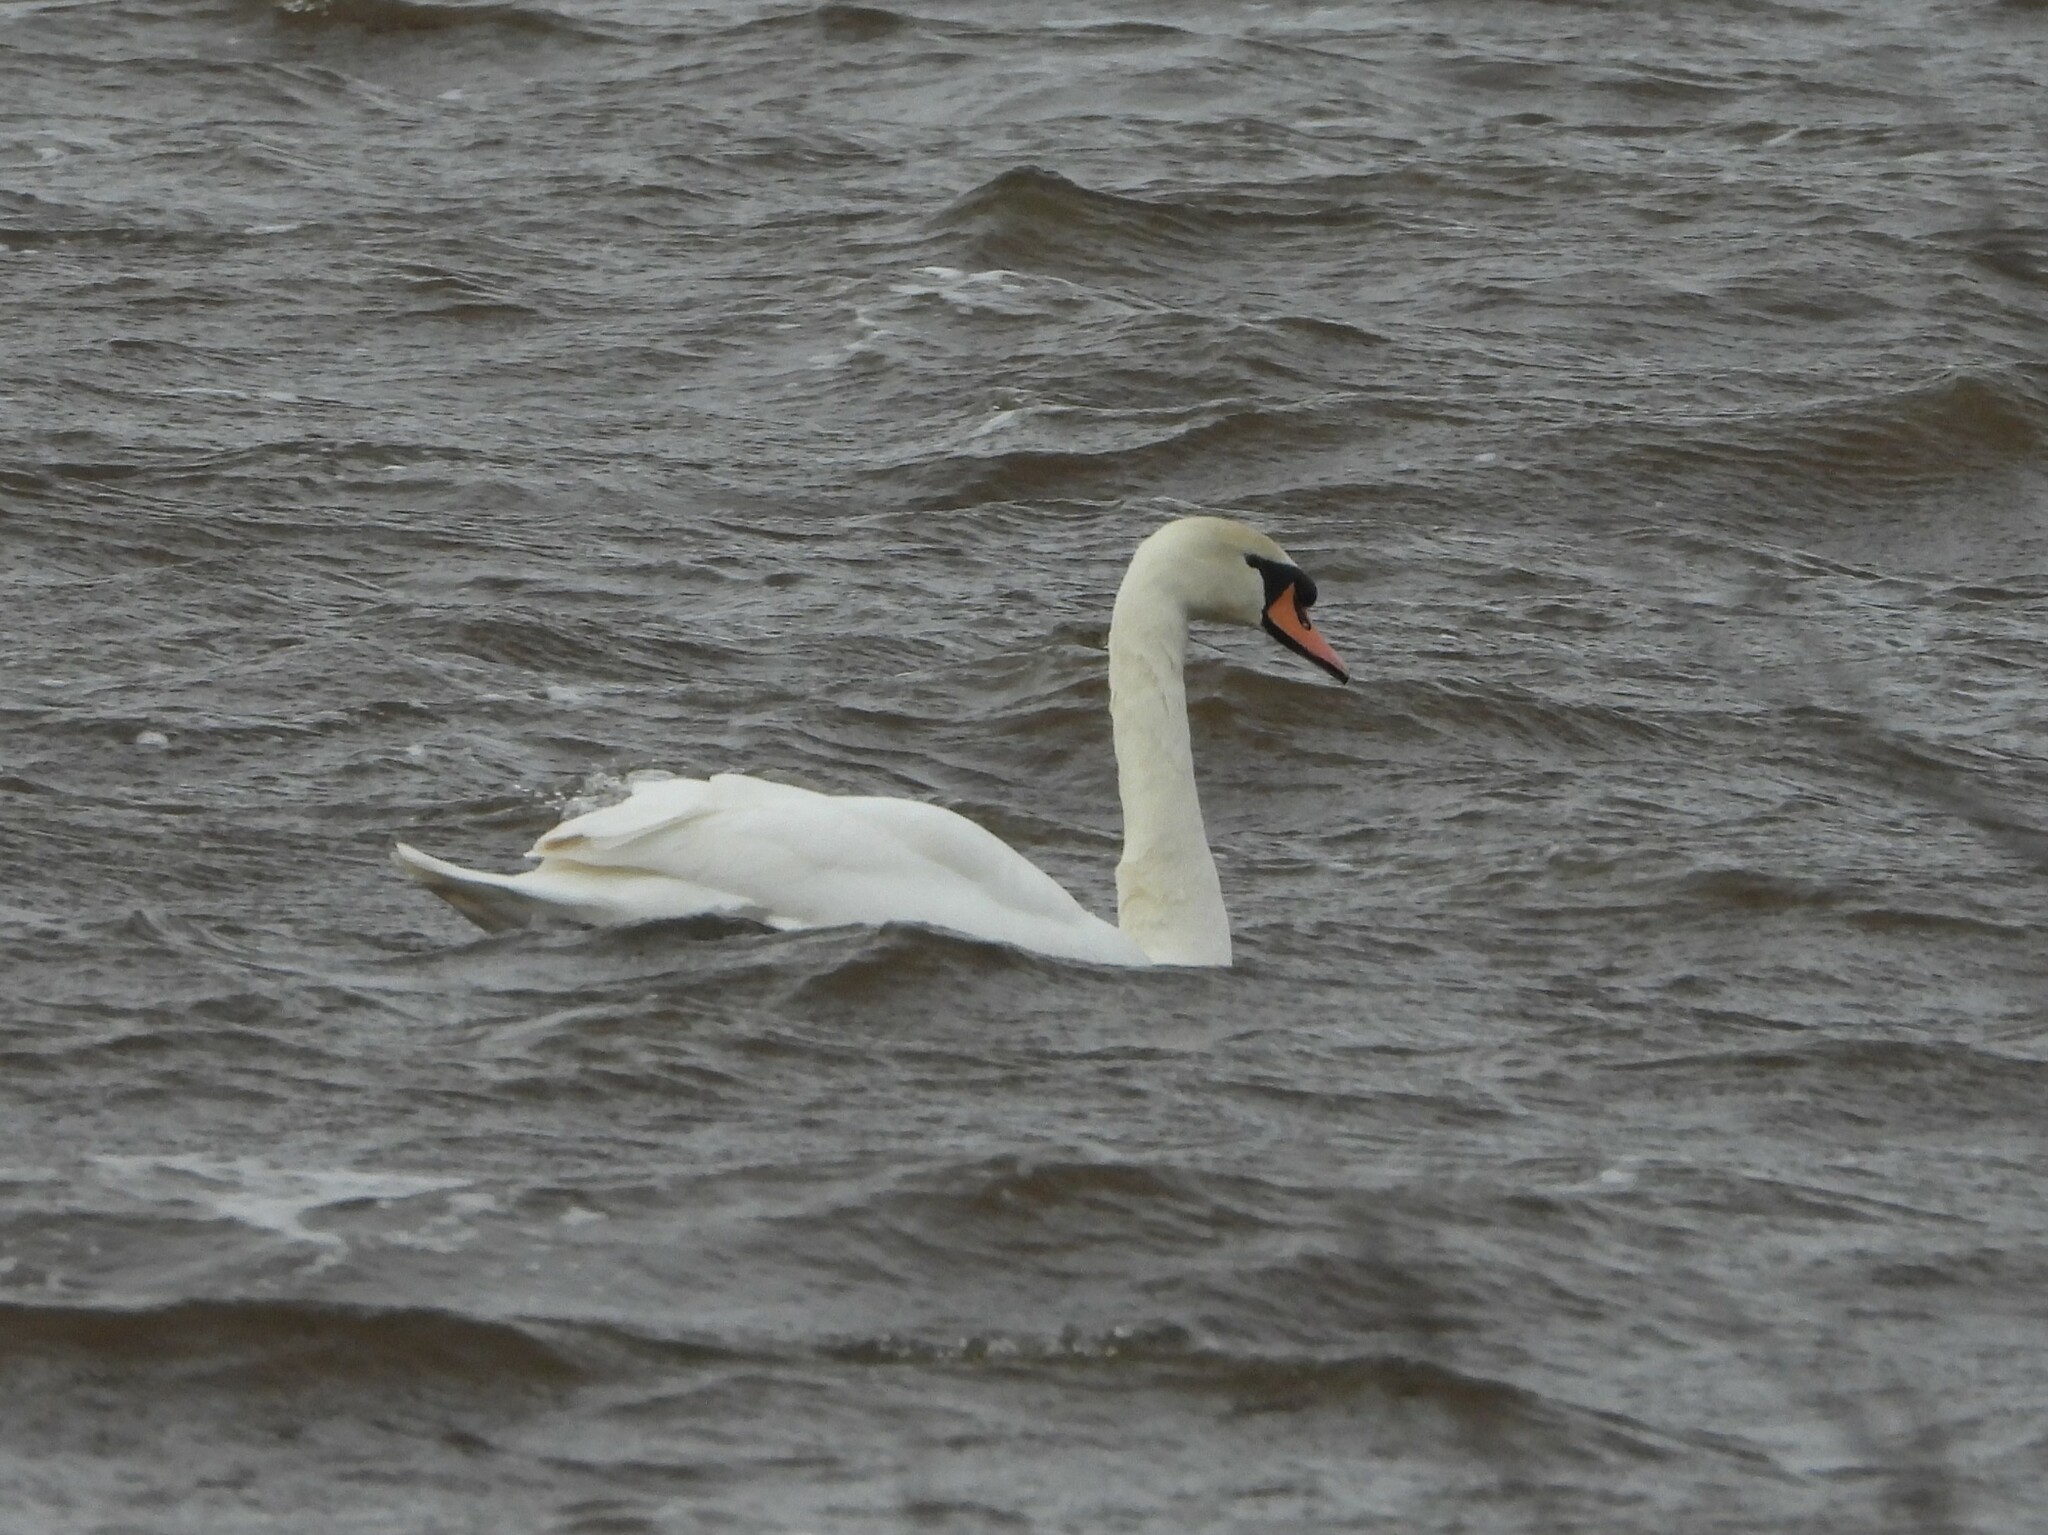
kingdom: Animalia
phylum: Chordata
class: Aves
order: Anseriformes
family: Anatidae
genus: Cygnus
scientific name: Cygnus olor
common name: Mute swan
